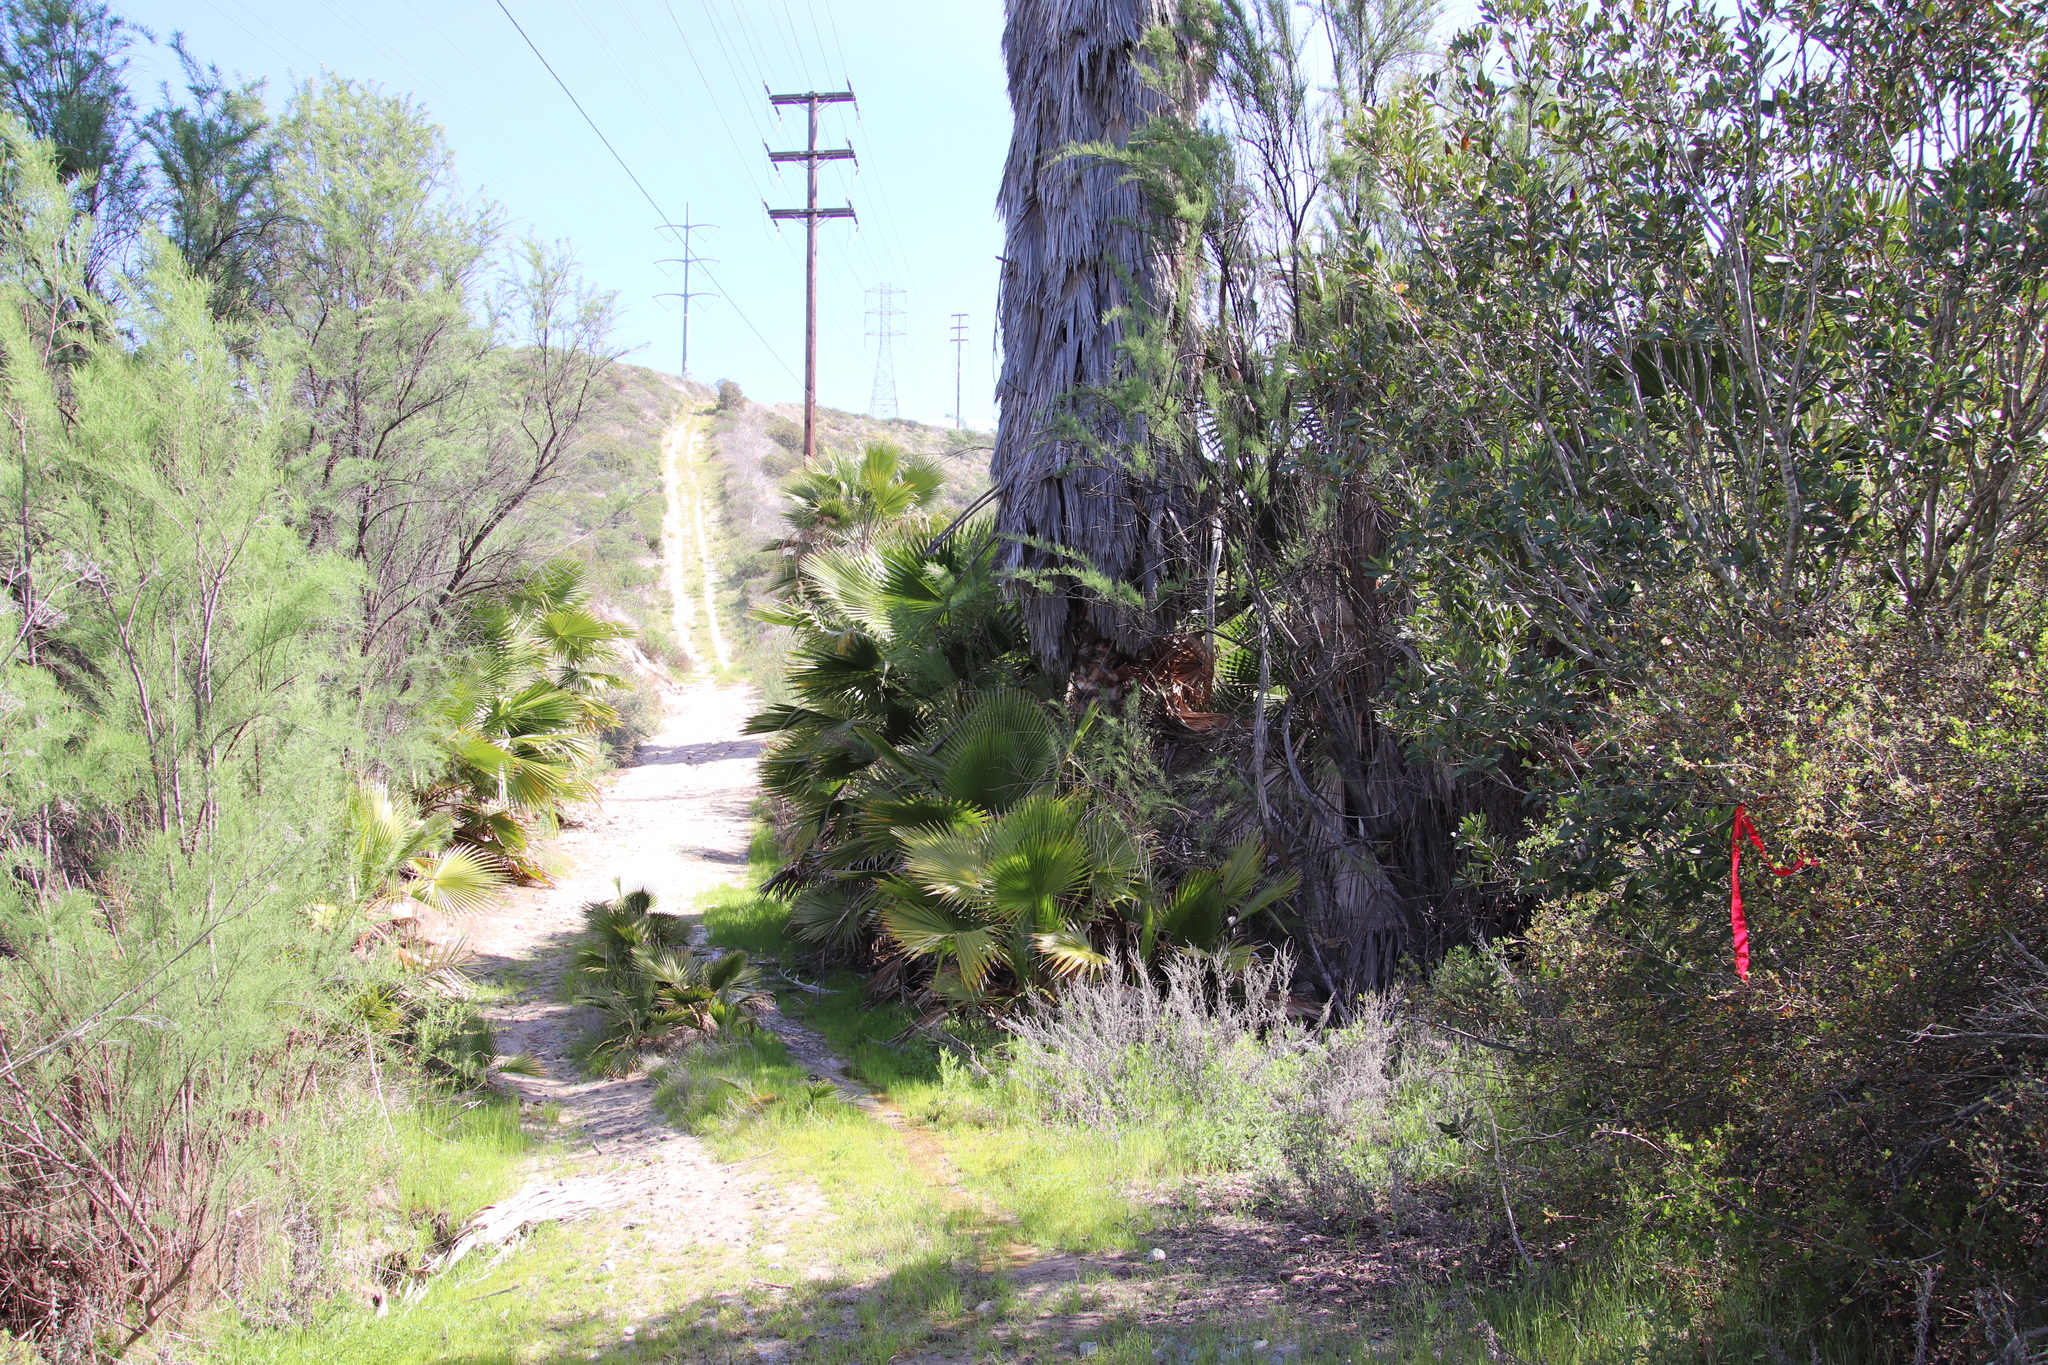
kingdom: Plantae
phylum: Tracheophyta
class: Liliopsida
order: Arecales
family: Arecaceae
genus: Washingtonia
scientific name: Washingtonia robusta
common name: Mexican fan palm
